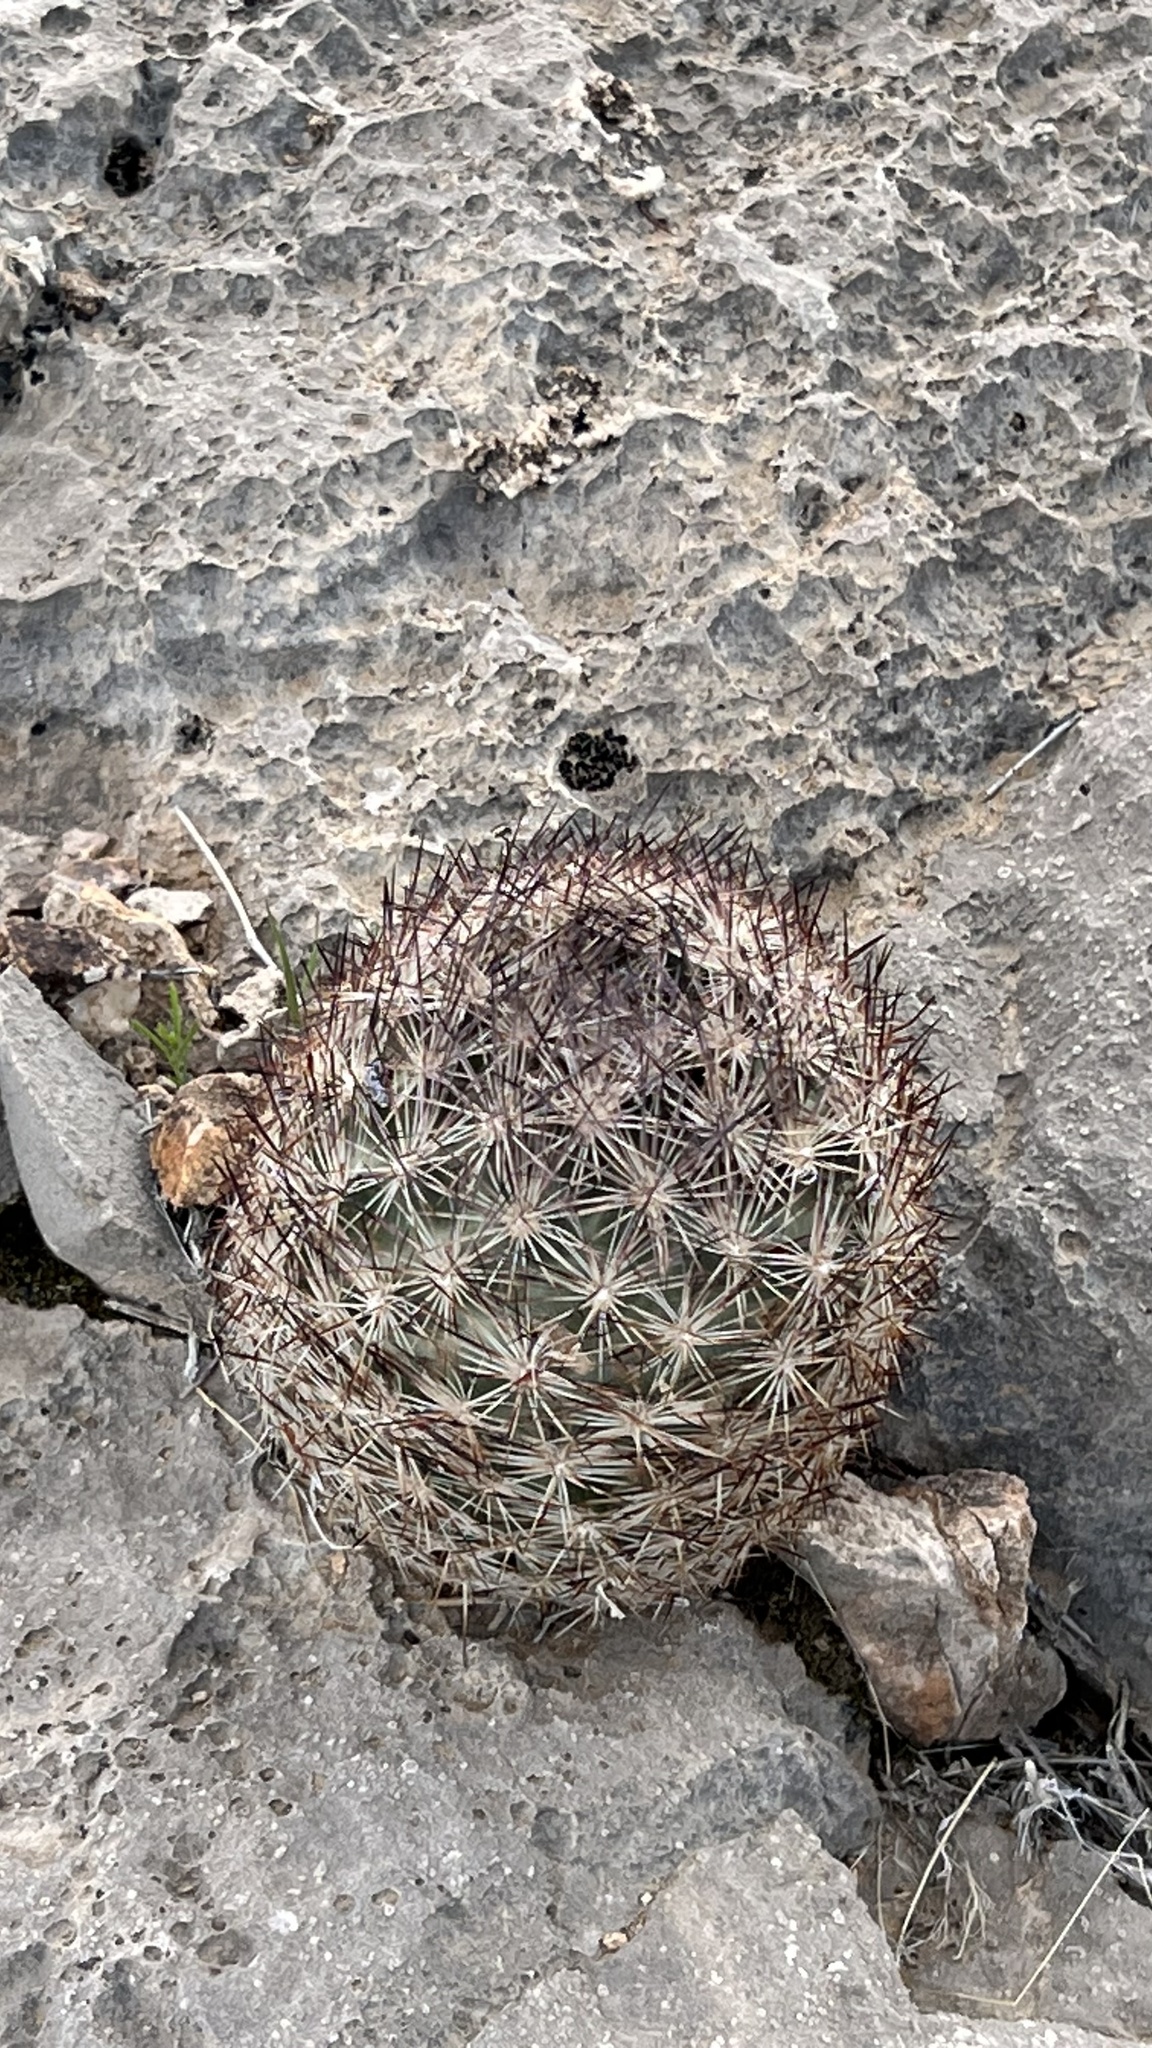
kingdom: Plantae
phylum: Tracheophyta
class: Magnoliopsida
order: Caryophyllales
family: Cactaceae
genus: Pelecyphora
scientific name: Pelecyphora dasyacantha
